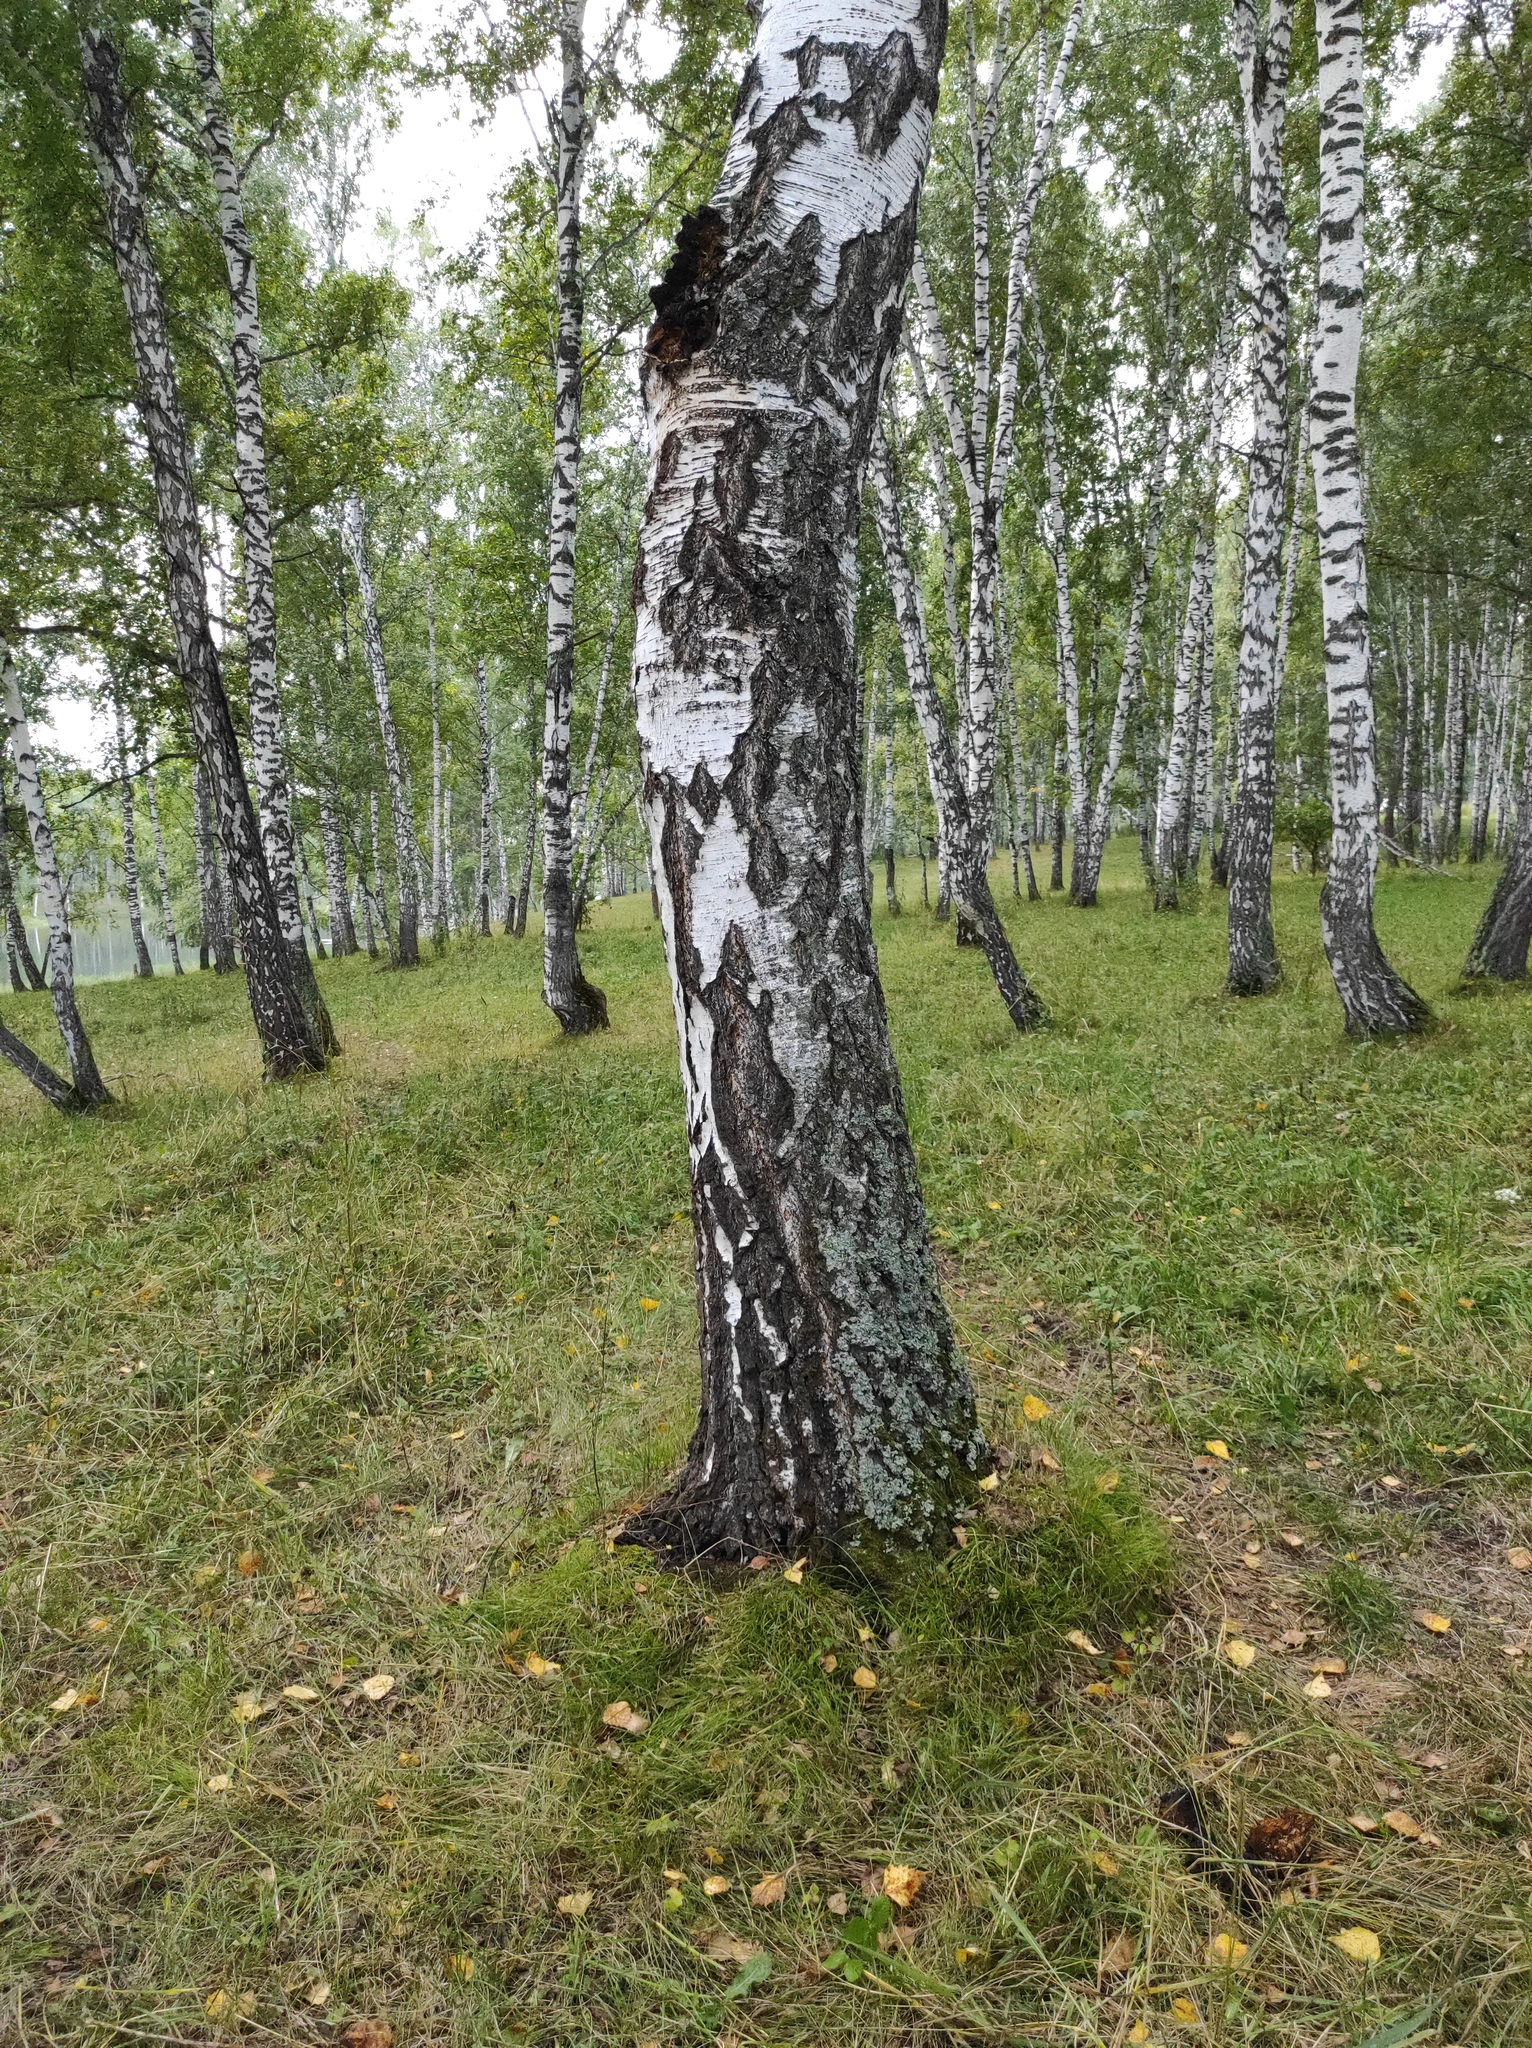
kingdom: Plantae
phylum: Tracheophyta
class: Magnoliopsida
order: Fagales
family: Betulaceae
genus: Betula
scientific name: Betula pendula
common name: Silver birch
